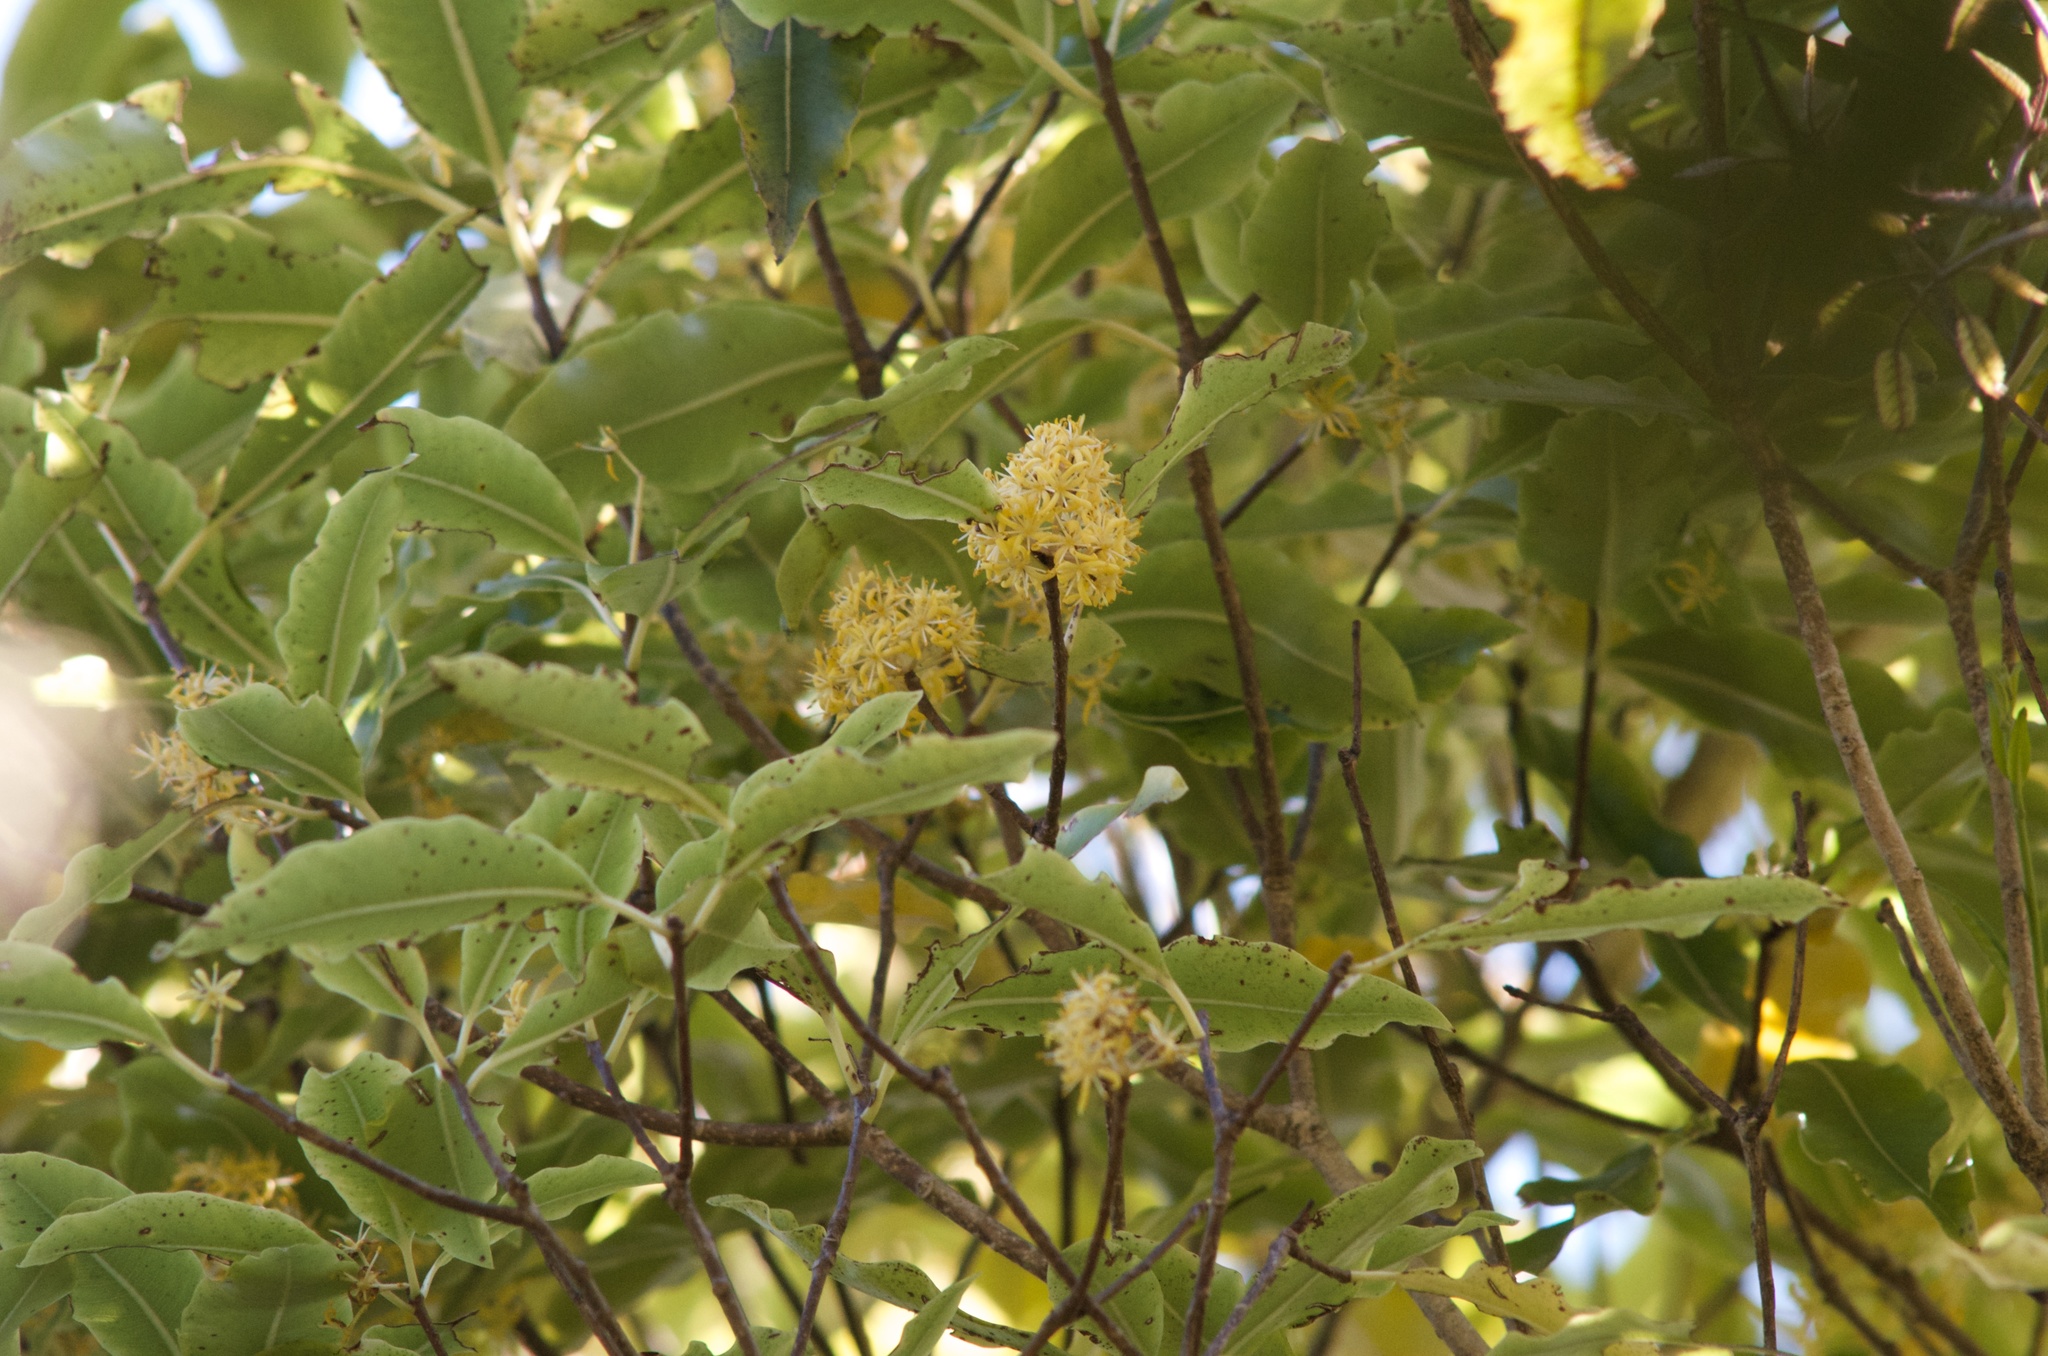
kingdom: Plantae
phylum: Tracheophyta
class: Magnoliopsida
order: Apiales
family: Pittosporaceae
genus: Pittosporum
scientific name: Pittosporum eugenioides
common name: Lemonwood
